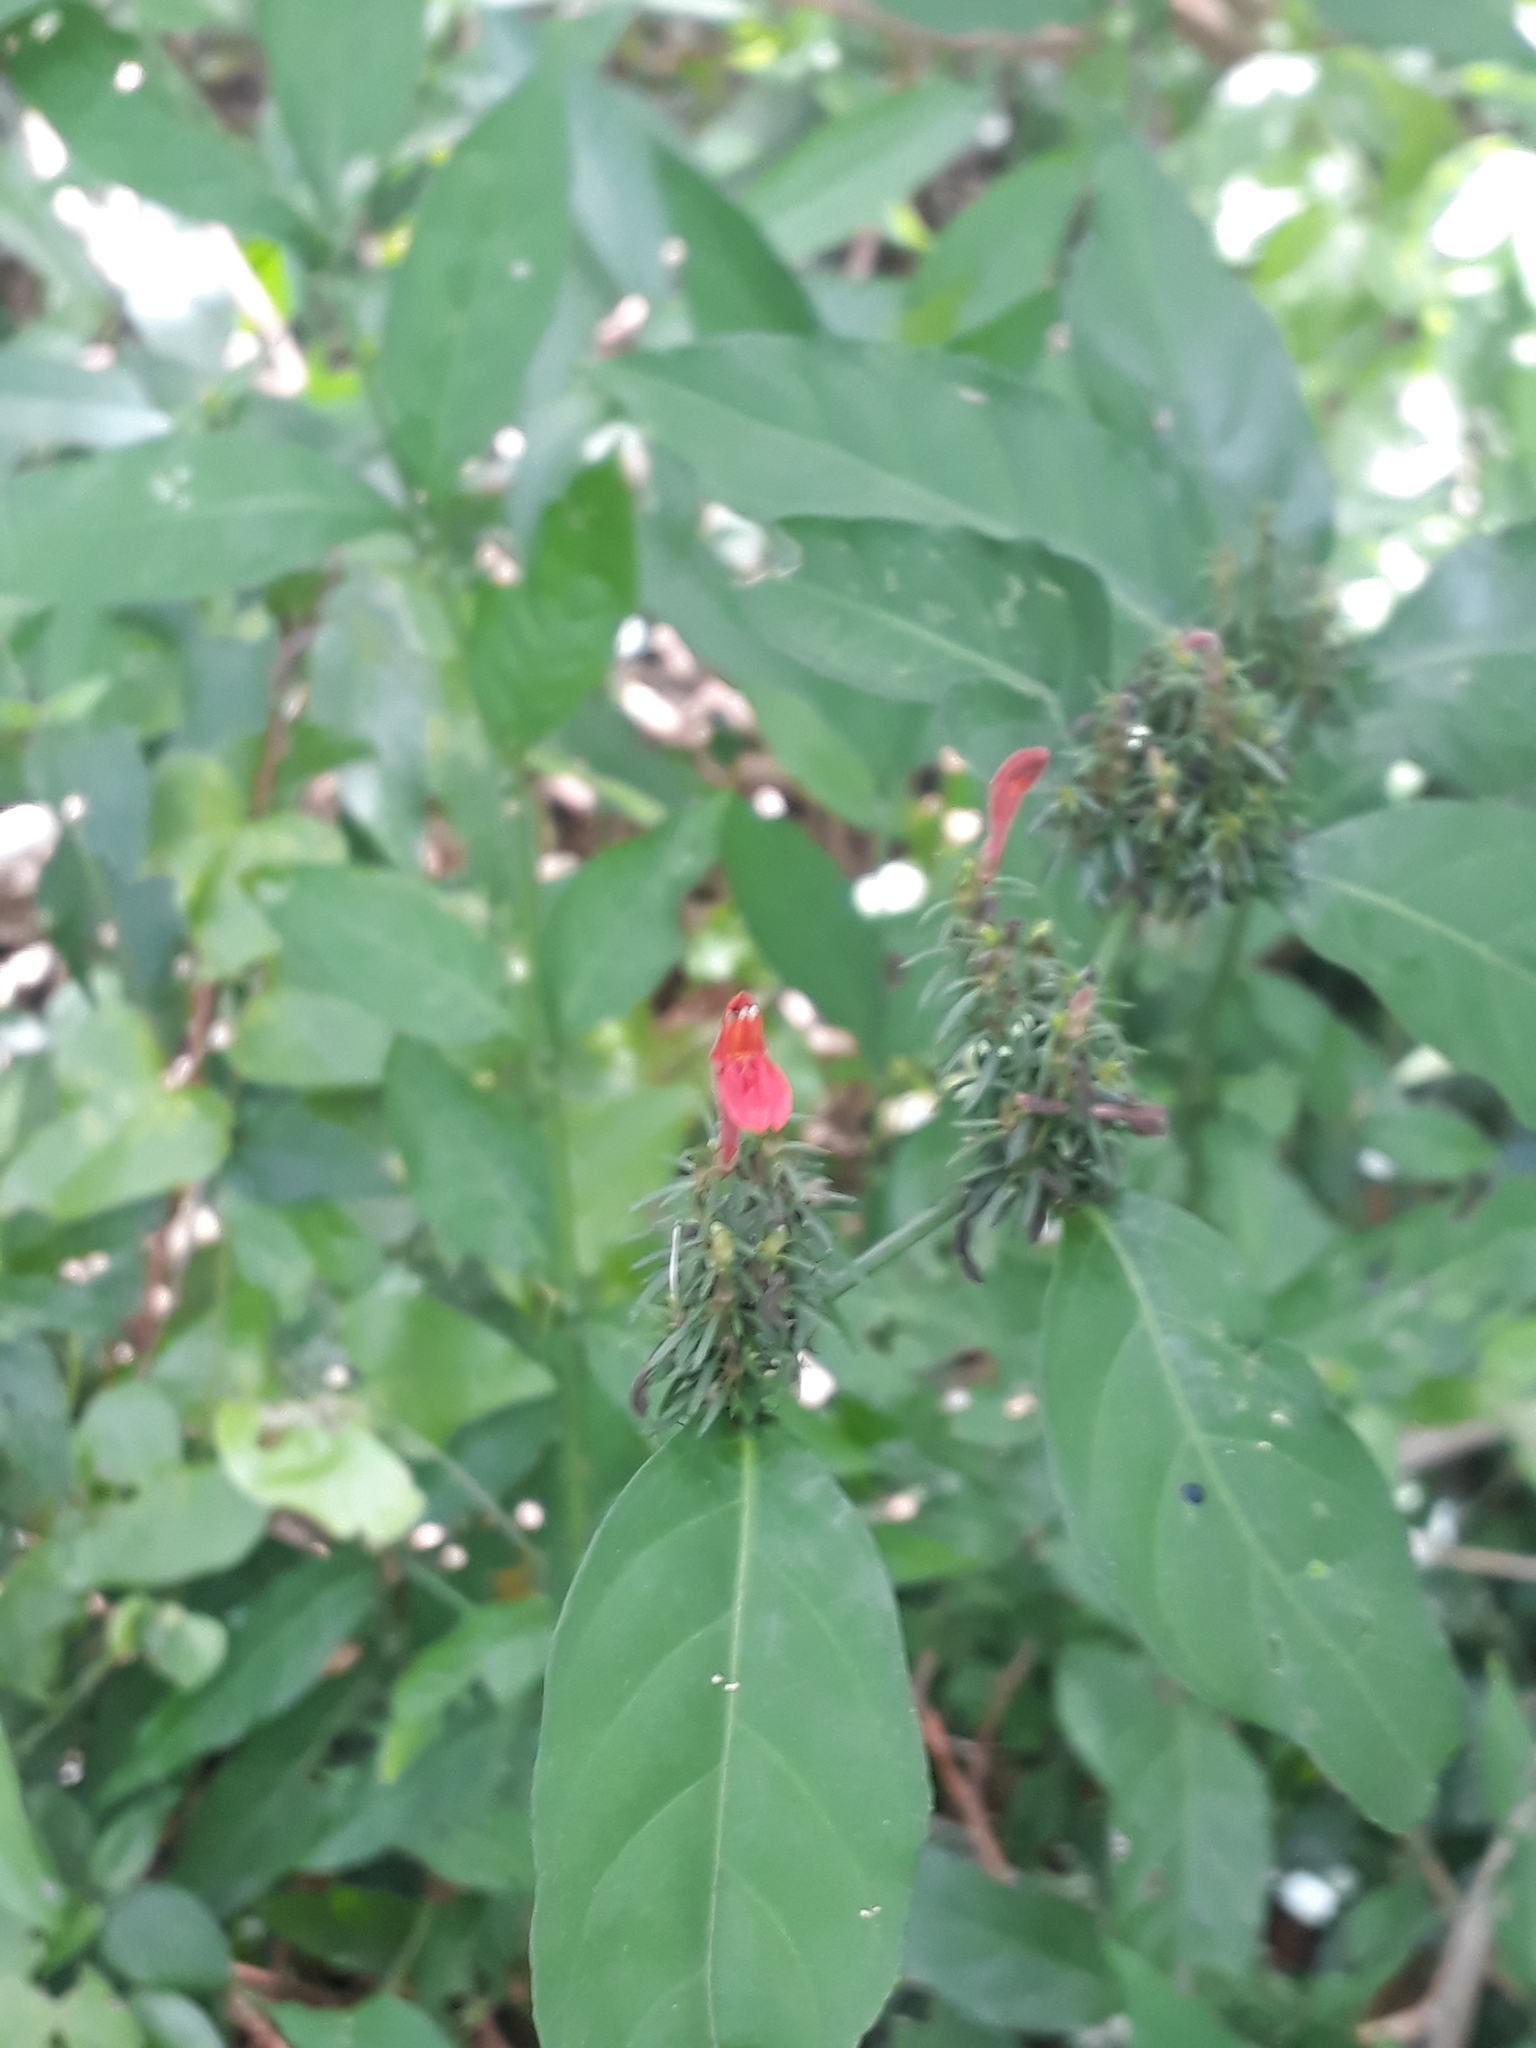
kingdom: Plantae
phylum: Tracheophyta
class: Magnoliopsida
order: Lamiales
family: Acanthaceae
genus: Justicia
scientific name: Justicia brasiliana
